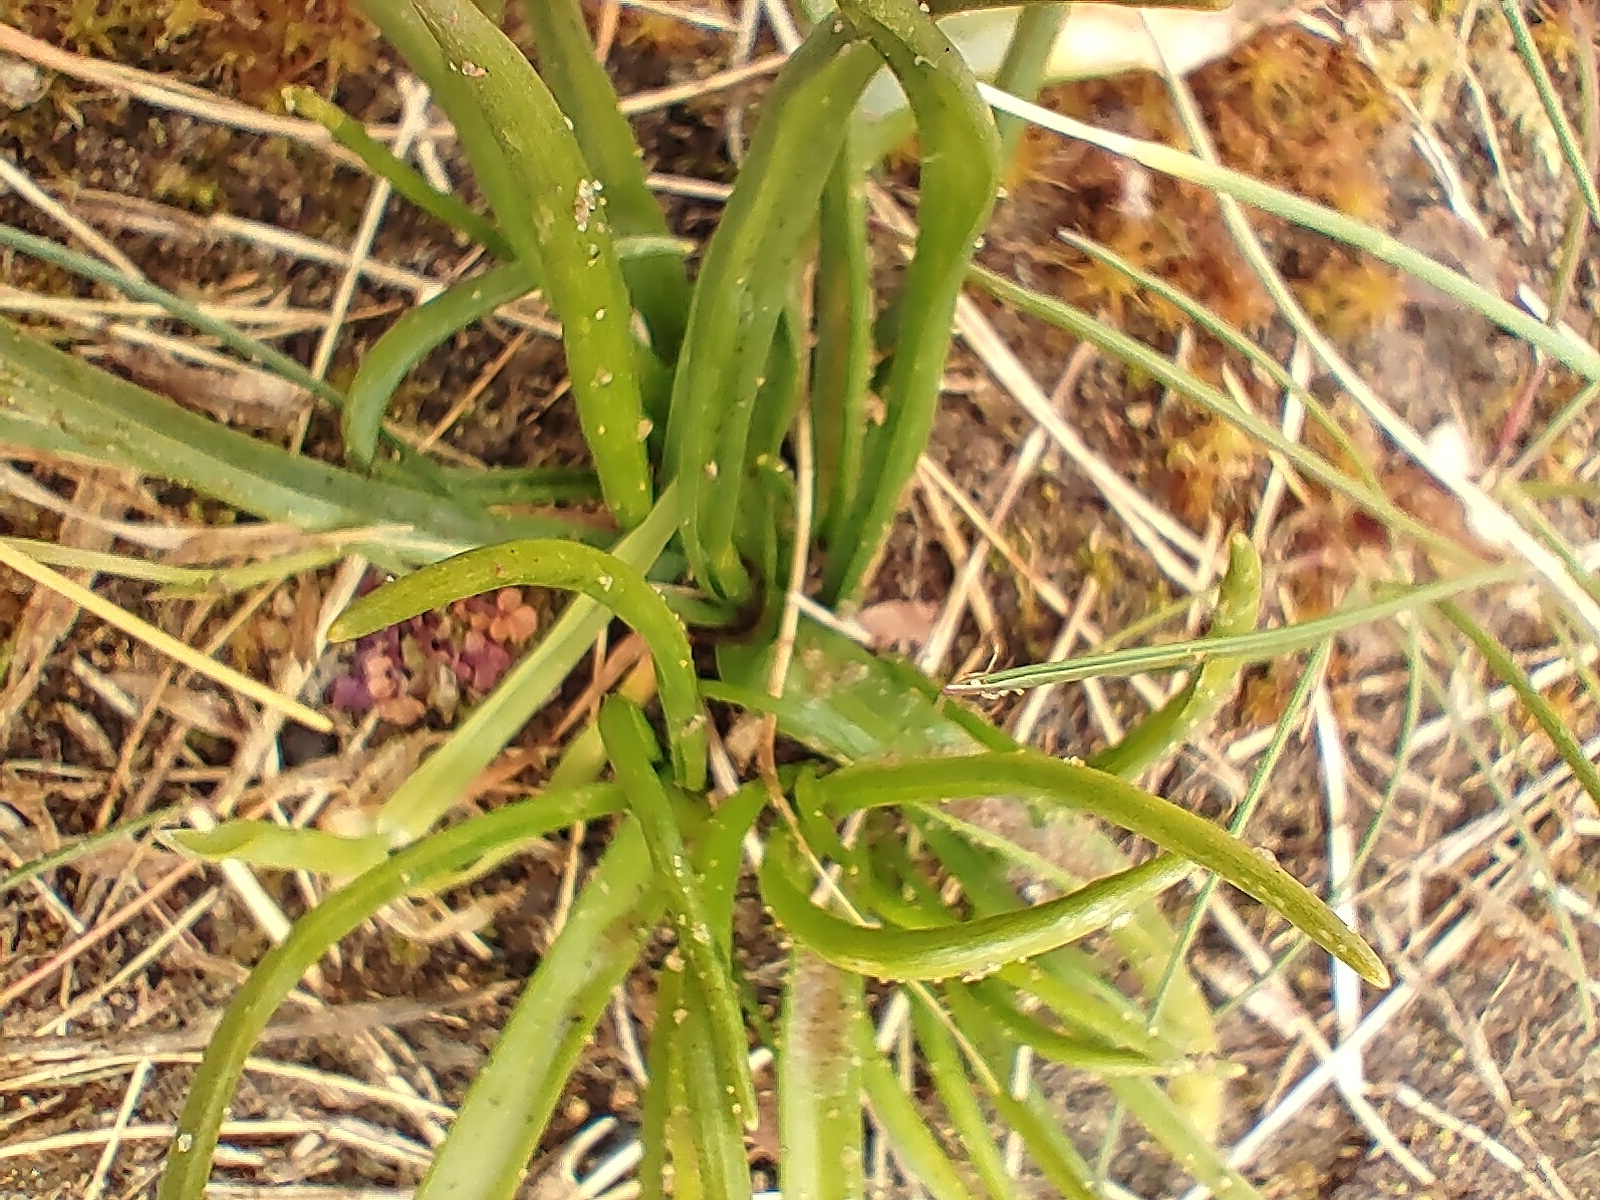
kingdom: Plantae
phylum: Tracheophyta
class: Magnoliopsida
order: Lamiales
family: Plantaginaceae
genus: Plantago
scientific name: Plantago maritima
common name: Sea plantain
